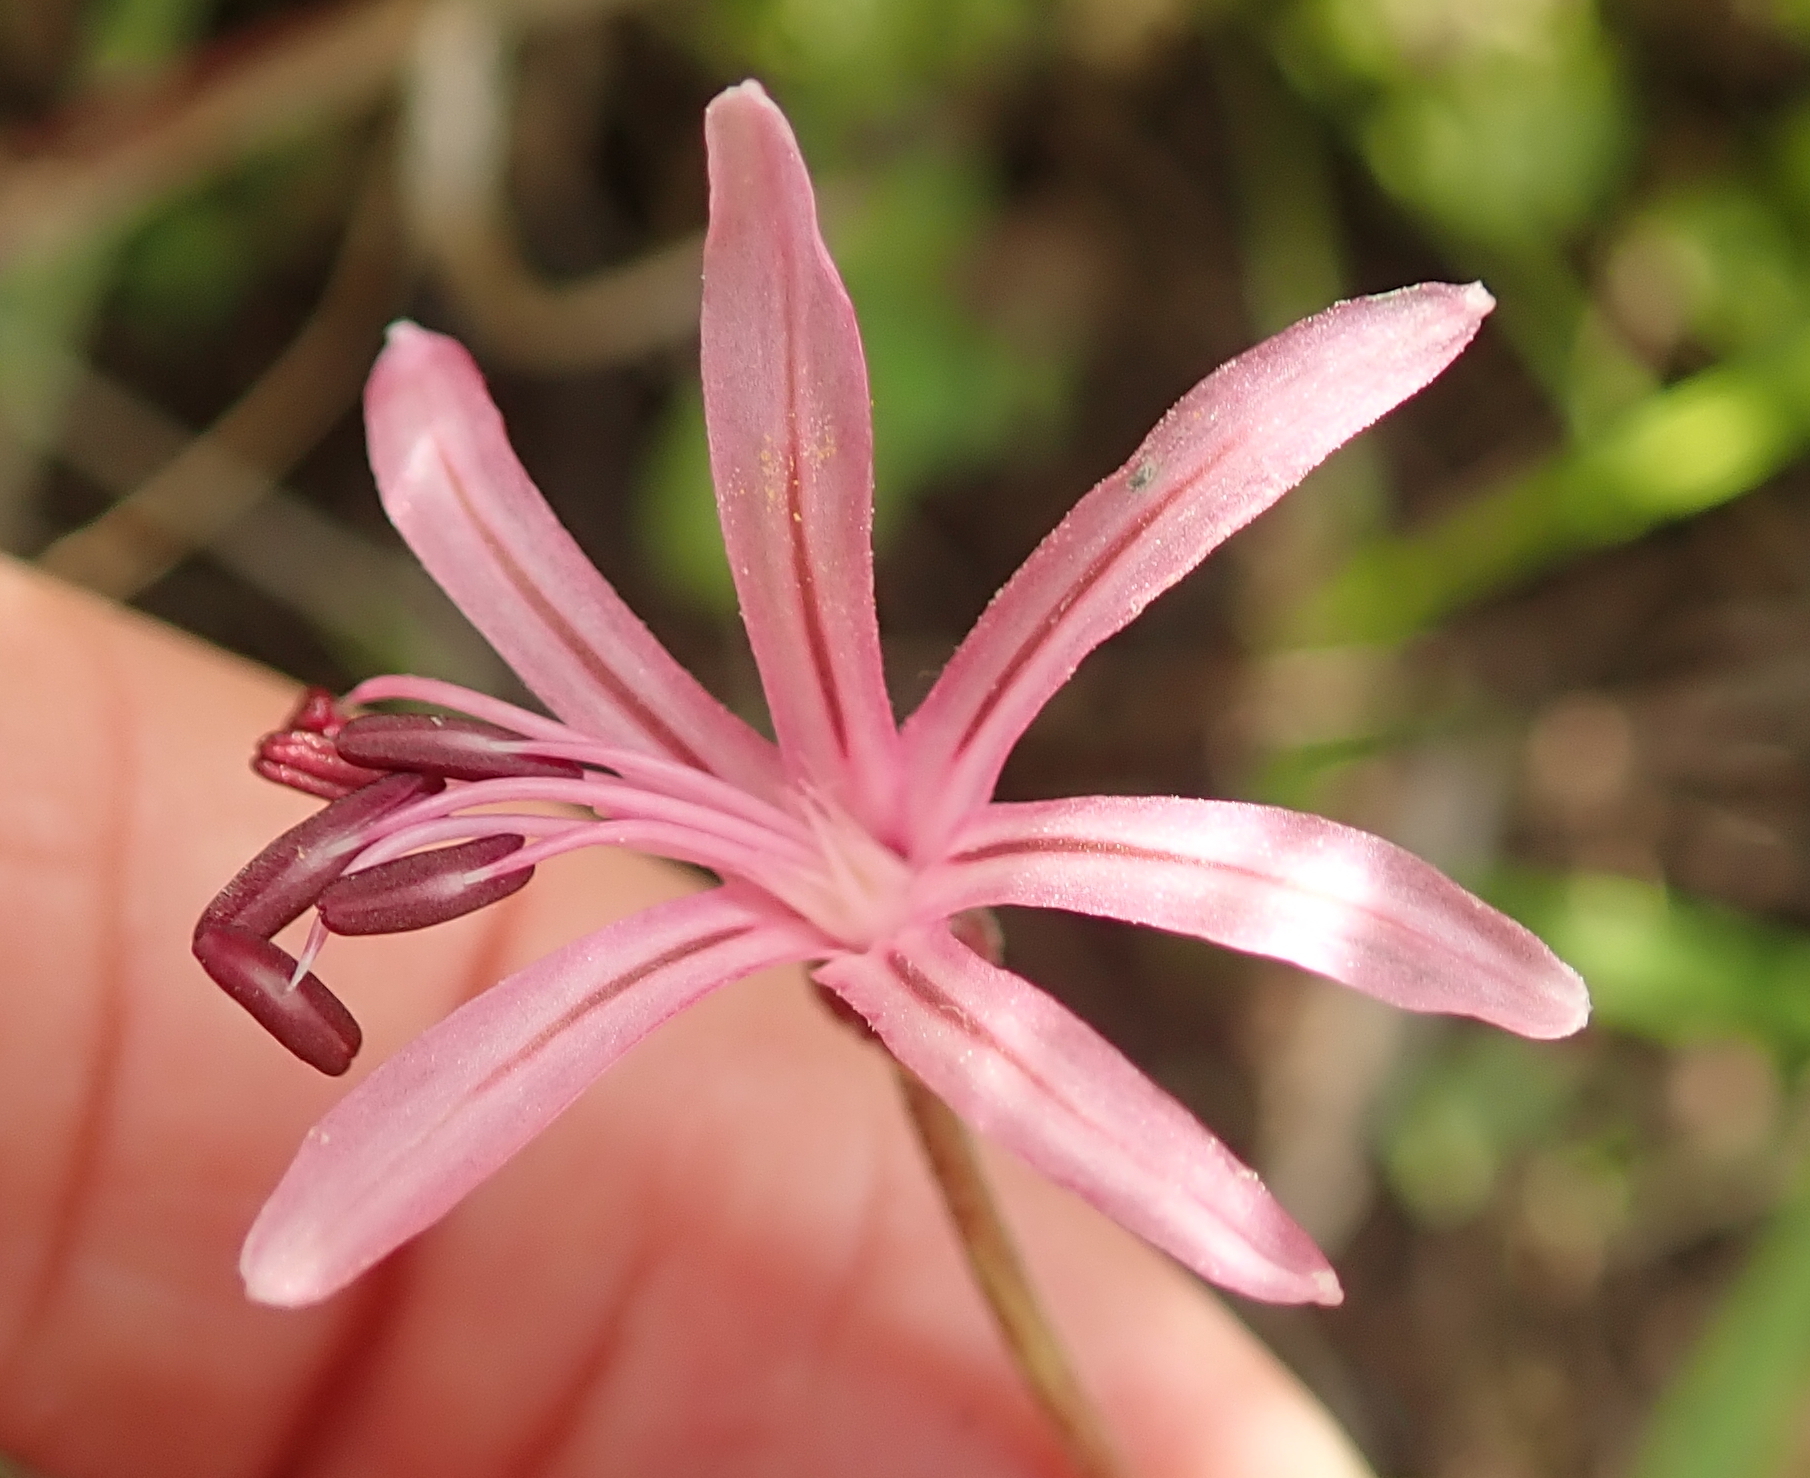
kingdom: Plantae
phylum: Tracheophyta
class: Liliopsida
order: Asparagales
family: Amaryllidaceae
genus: Nerine
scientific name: Nerine appendiculata
